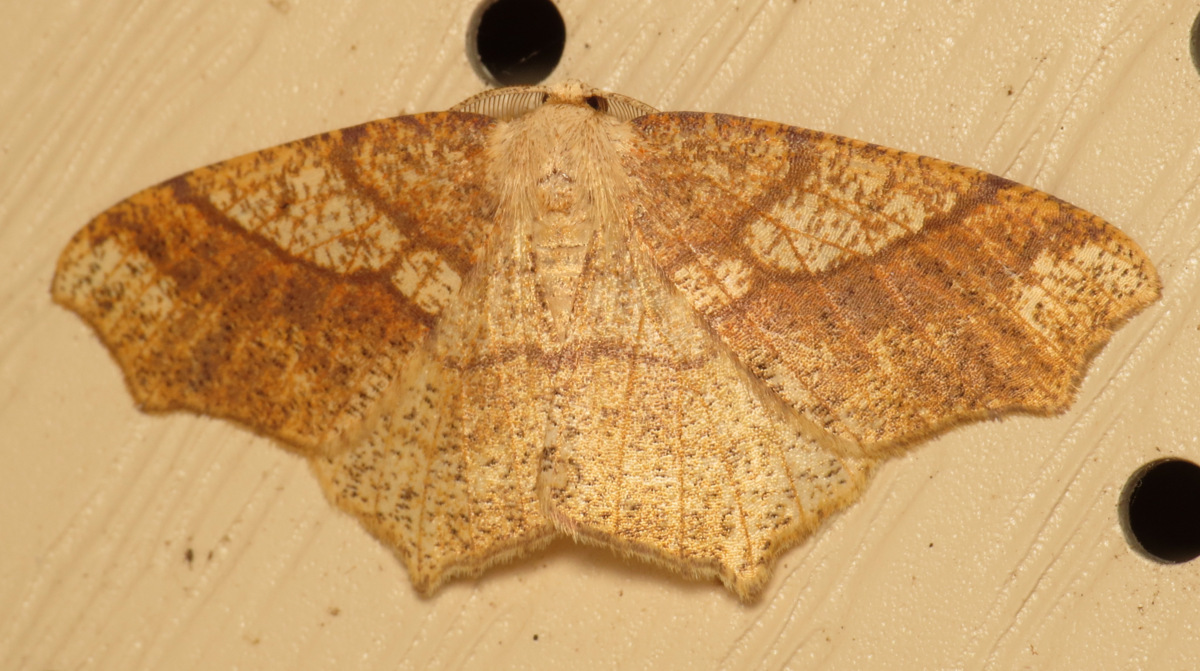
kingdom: Animalia
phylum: Arthropoda
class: Insecta
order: Lepidoptera
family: Geometridae
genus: Besma
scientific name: Besma quercivoraria
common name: Oak besma
